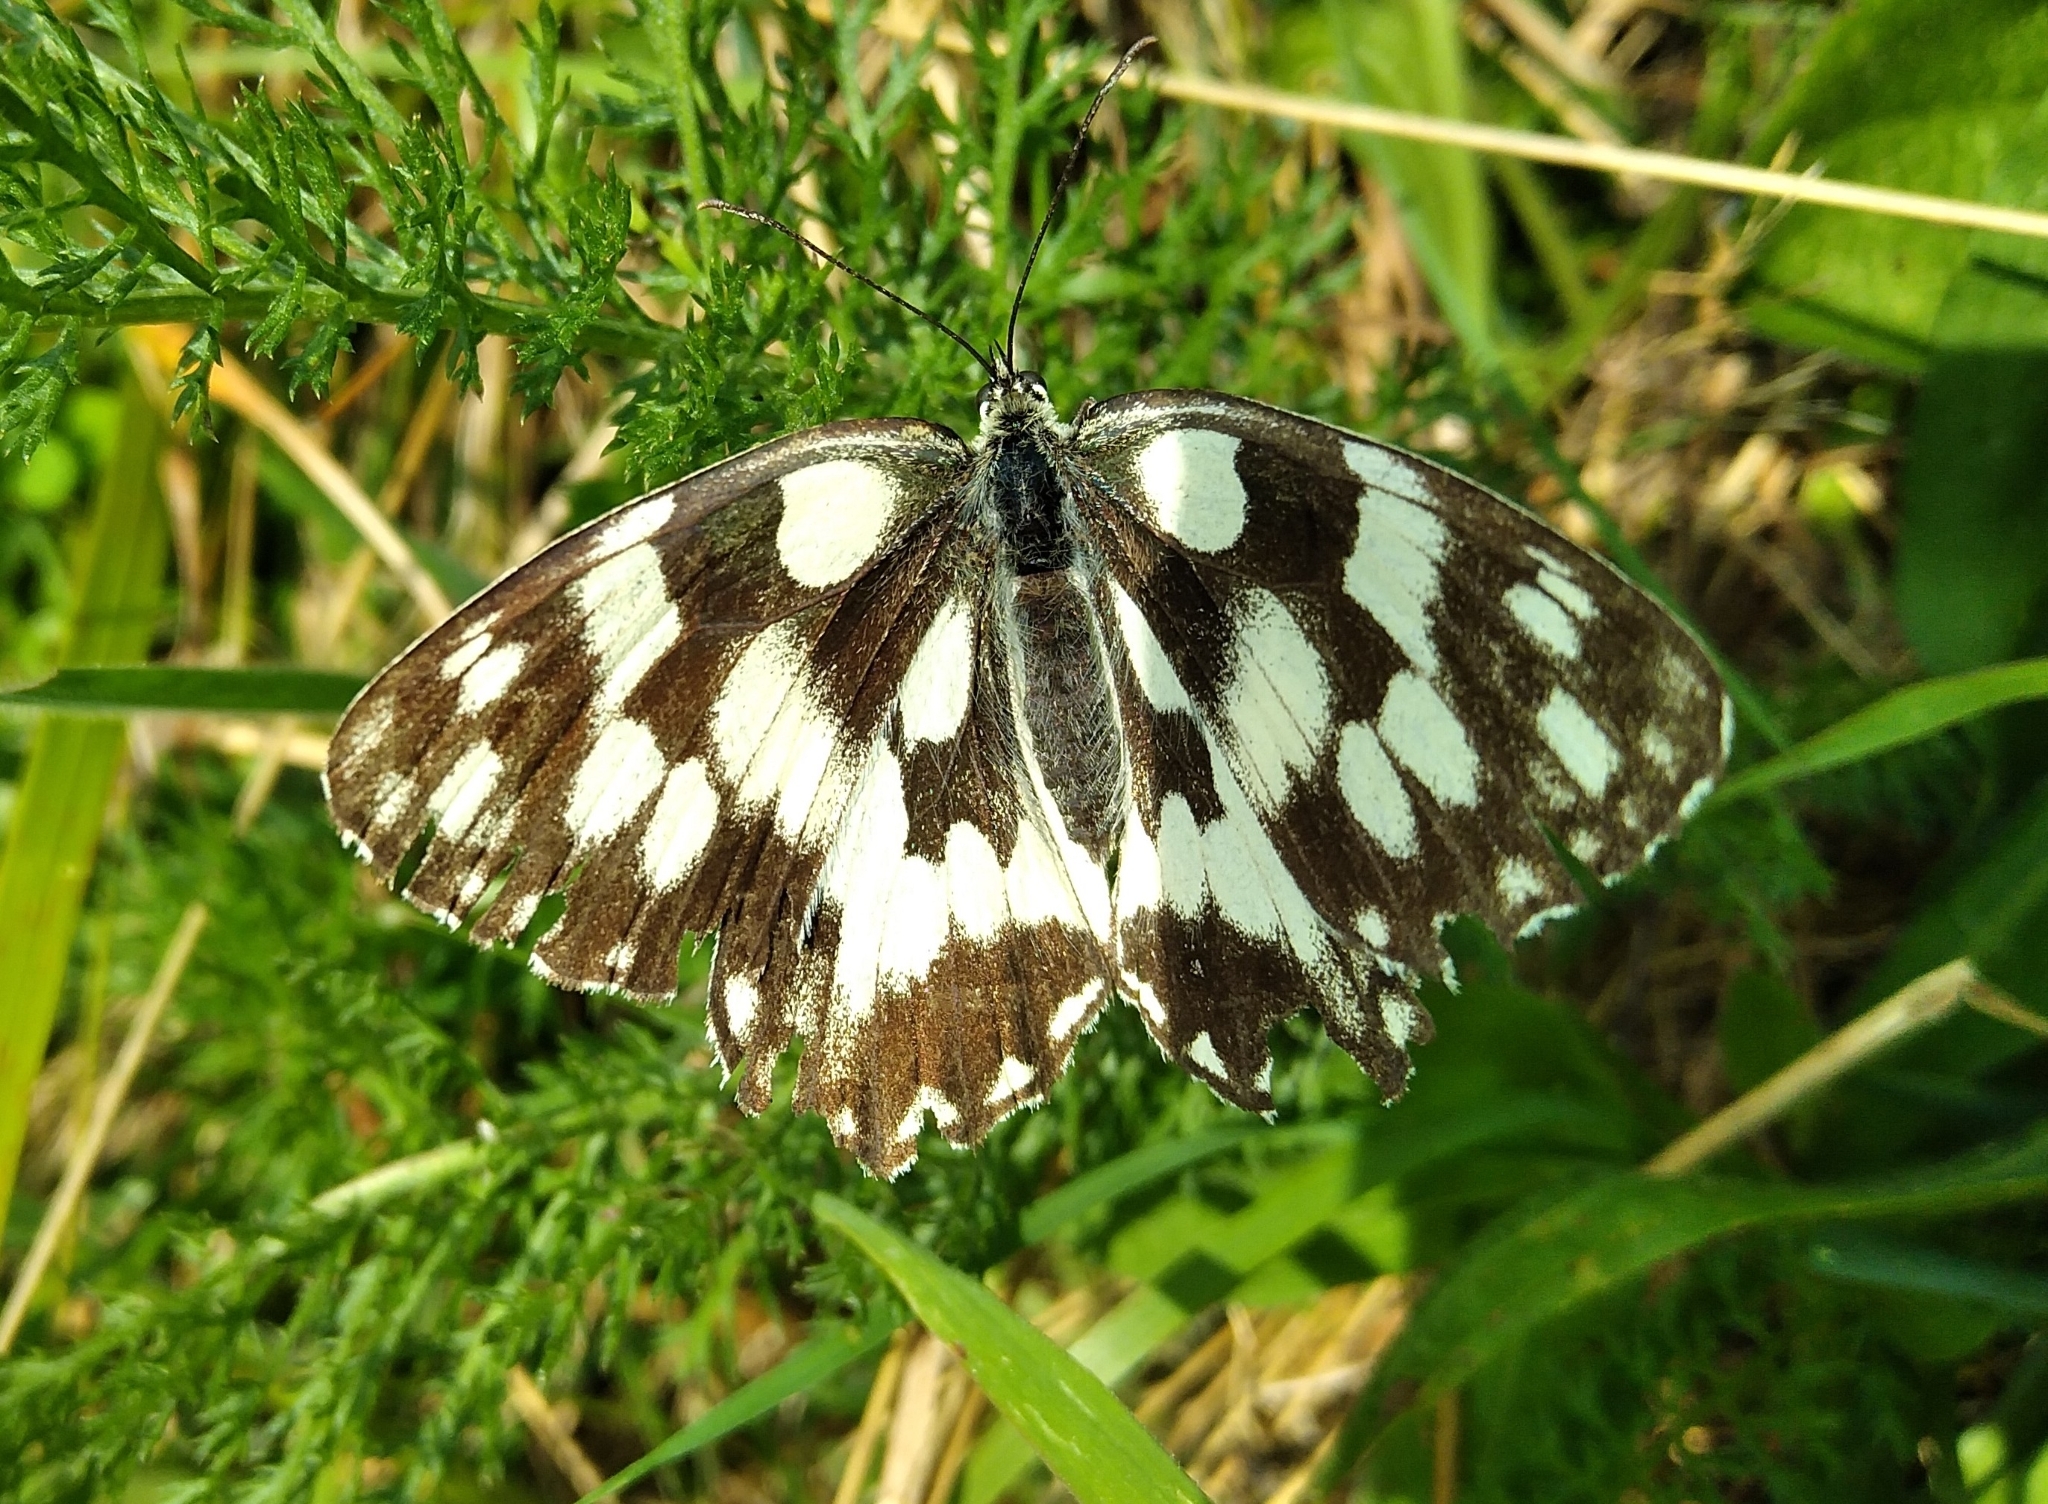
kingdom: Animalia
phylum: Arthropoda
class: Insecta
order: Lepidoptera
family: Nymphalidae
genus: Melanargia
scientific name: Melanargia galathea
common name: Marbled white
